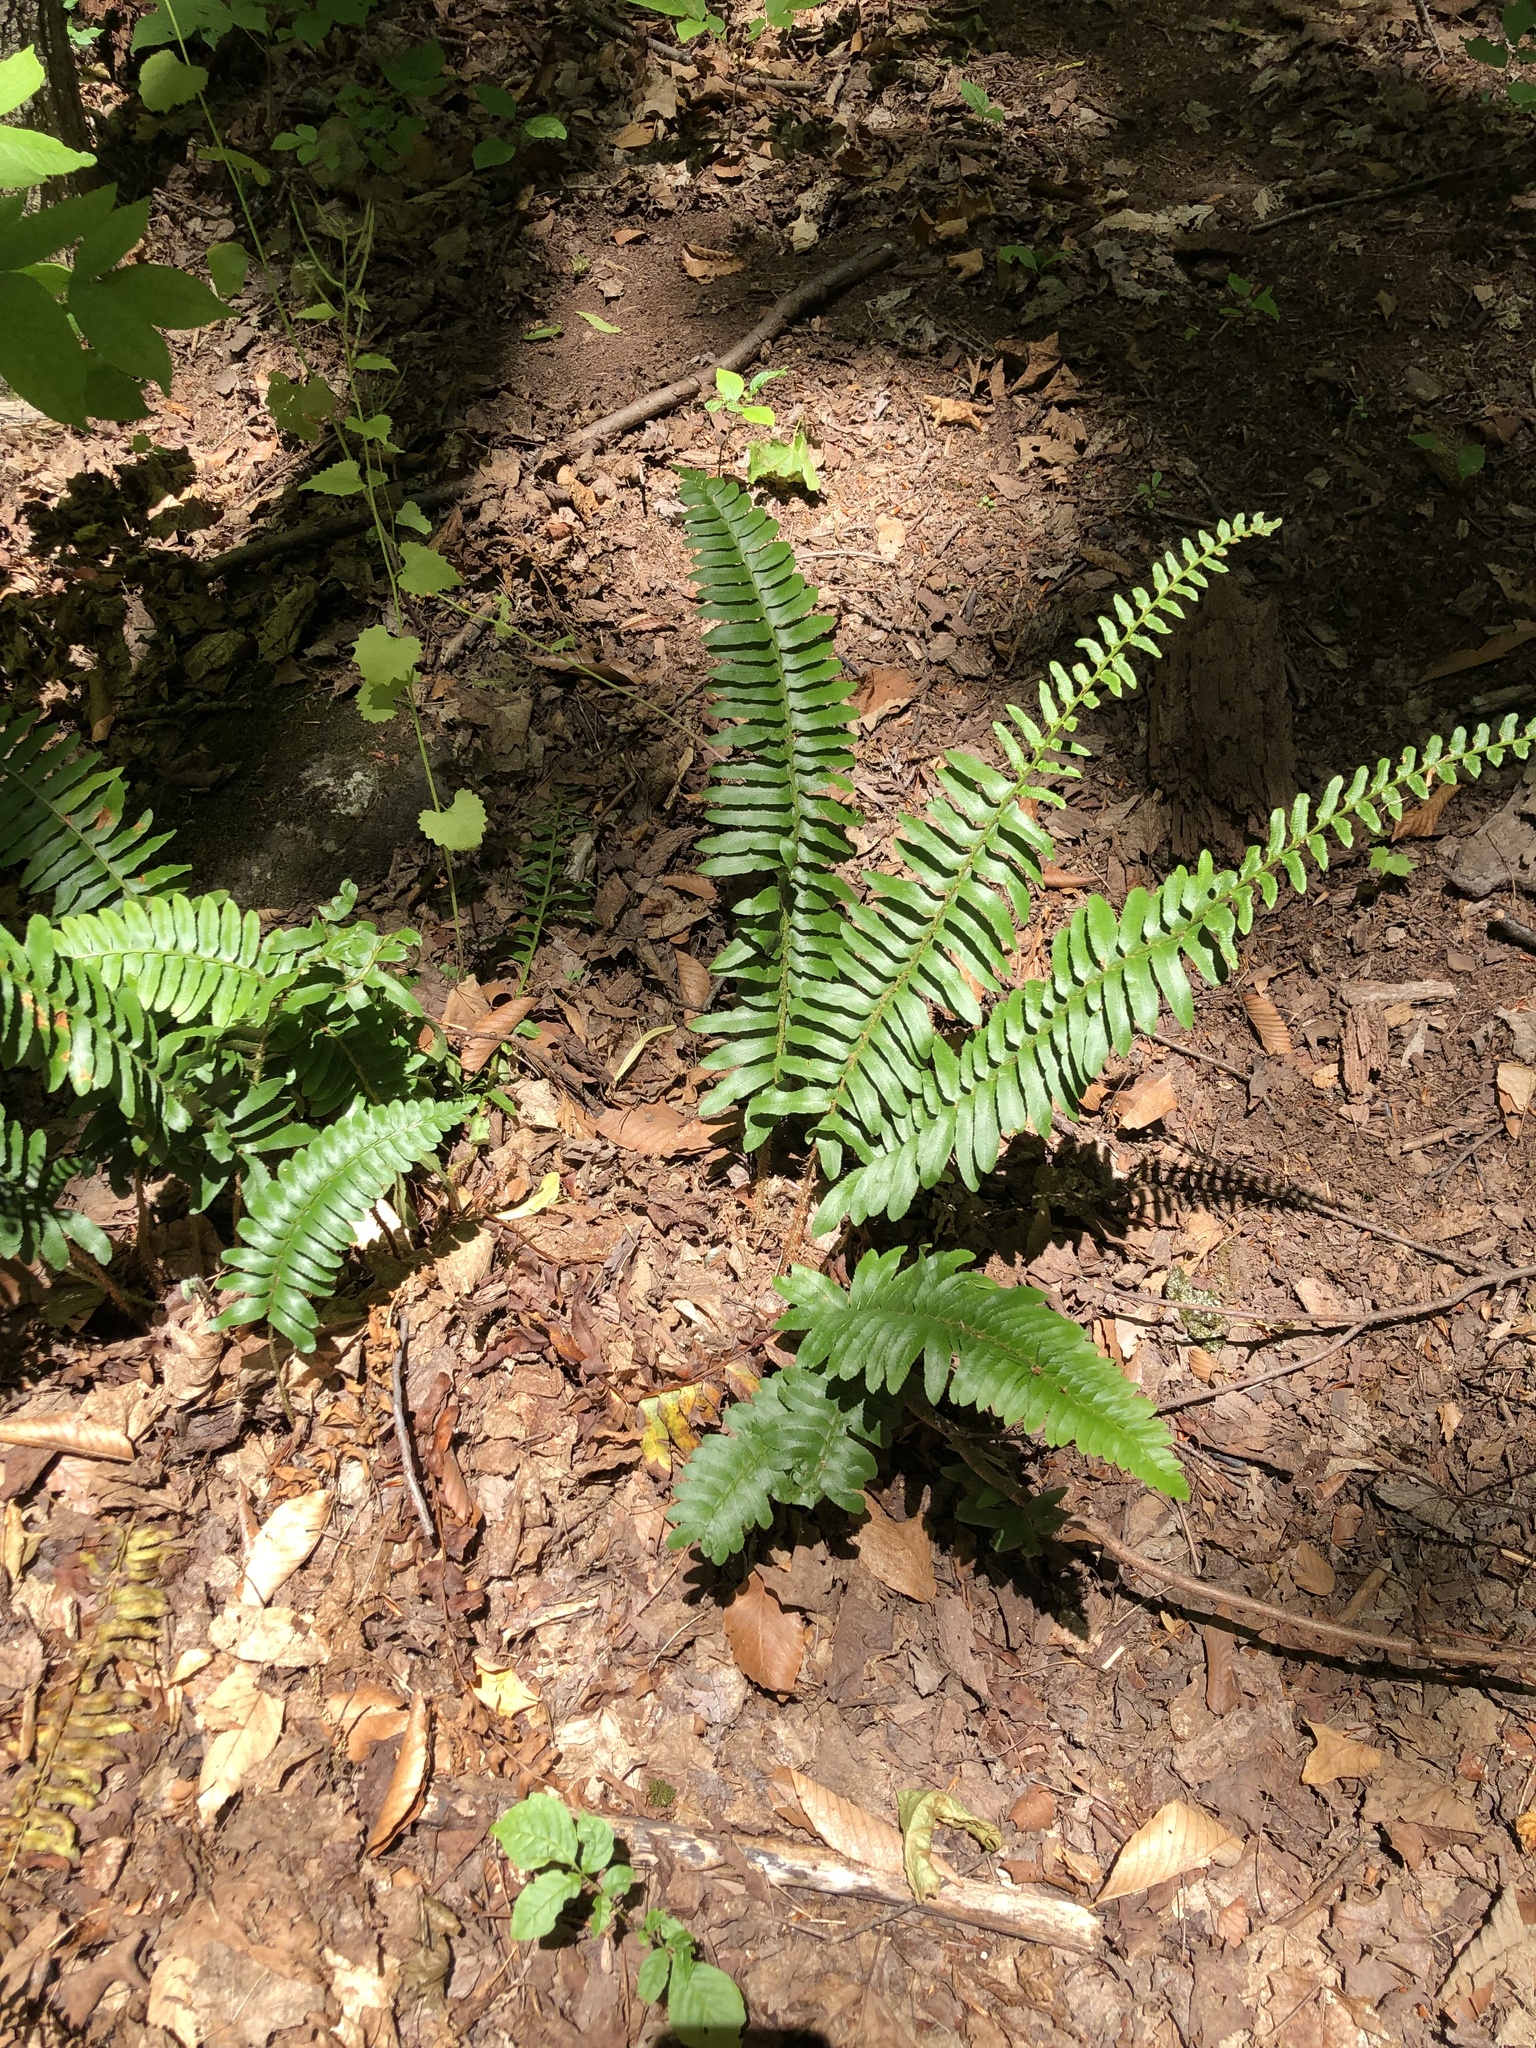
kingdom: Plantae
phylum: Tracheophyta
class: Polypodiopsida
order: Polypodiales
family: Dryopteridaceae
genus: Polystichum
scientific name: Polystichum acrostichoides
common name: Christmas fern
